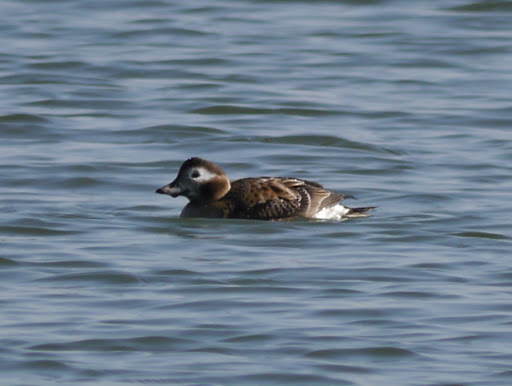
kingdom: Animalia
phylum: Chordata
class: Aves
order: Anseriformes
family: Anatidae
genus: Clangula
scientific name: Clangula hyemalis
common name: Long-tailed duck
